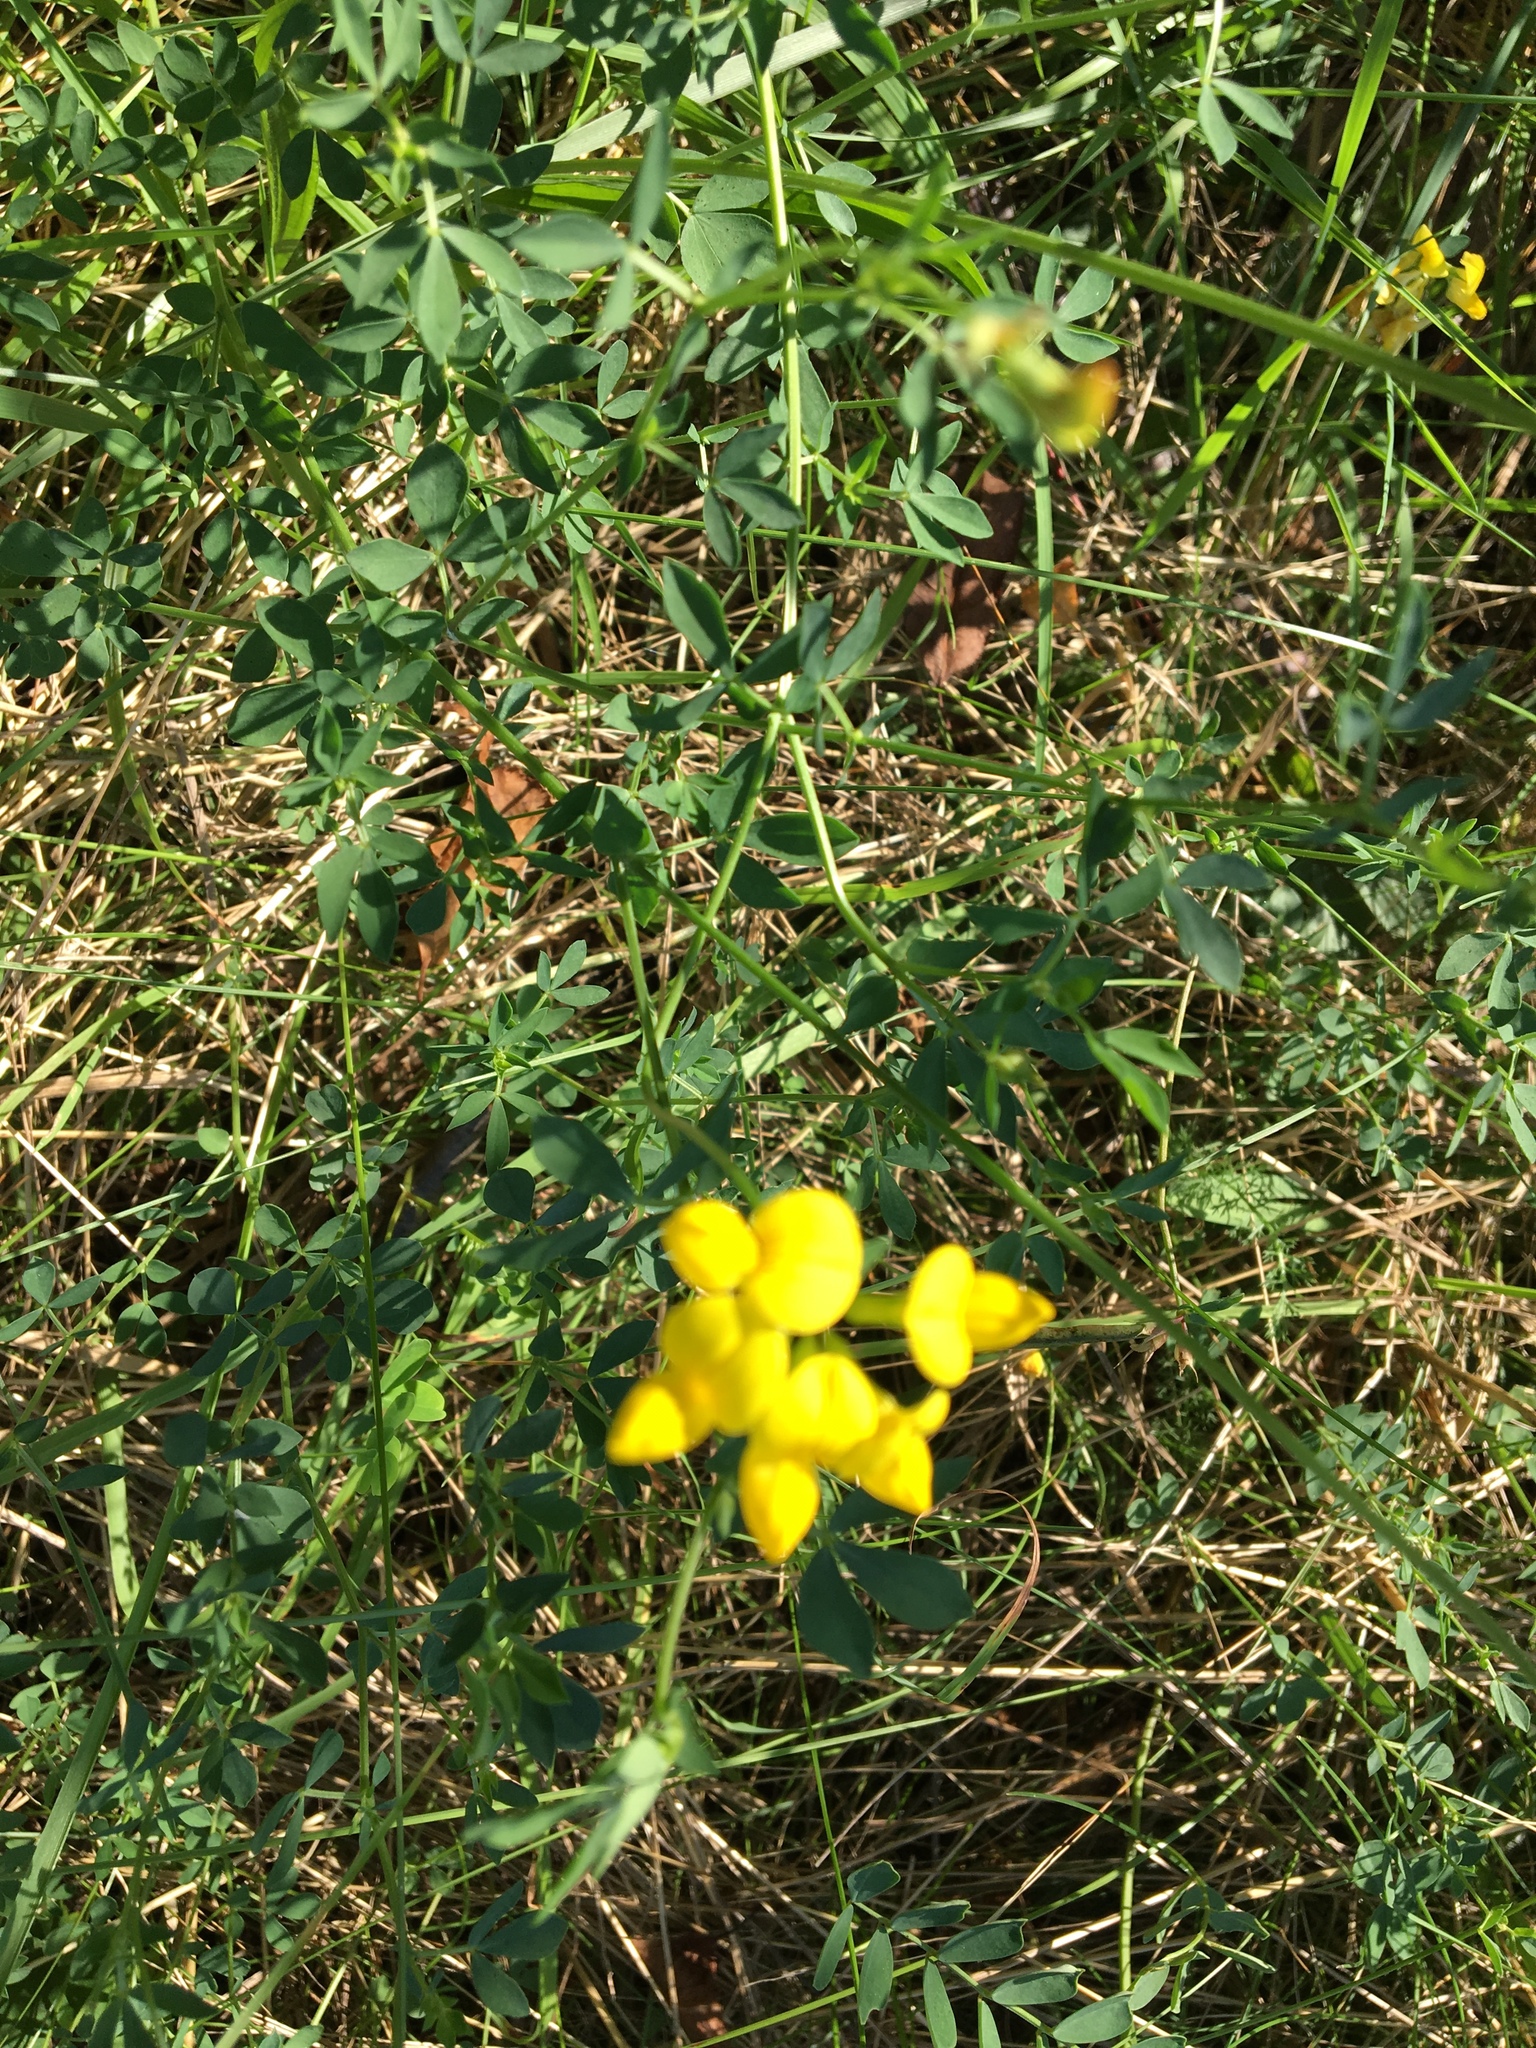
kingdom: Plantae
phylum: Tracheophyta
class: Magnoliopsida
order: Fabales
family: Fabaceae
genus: Lotus
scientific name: Lotus corniculatus
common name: Common bird's-foot-trefoil
